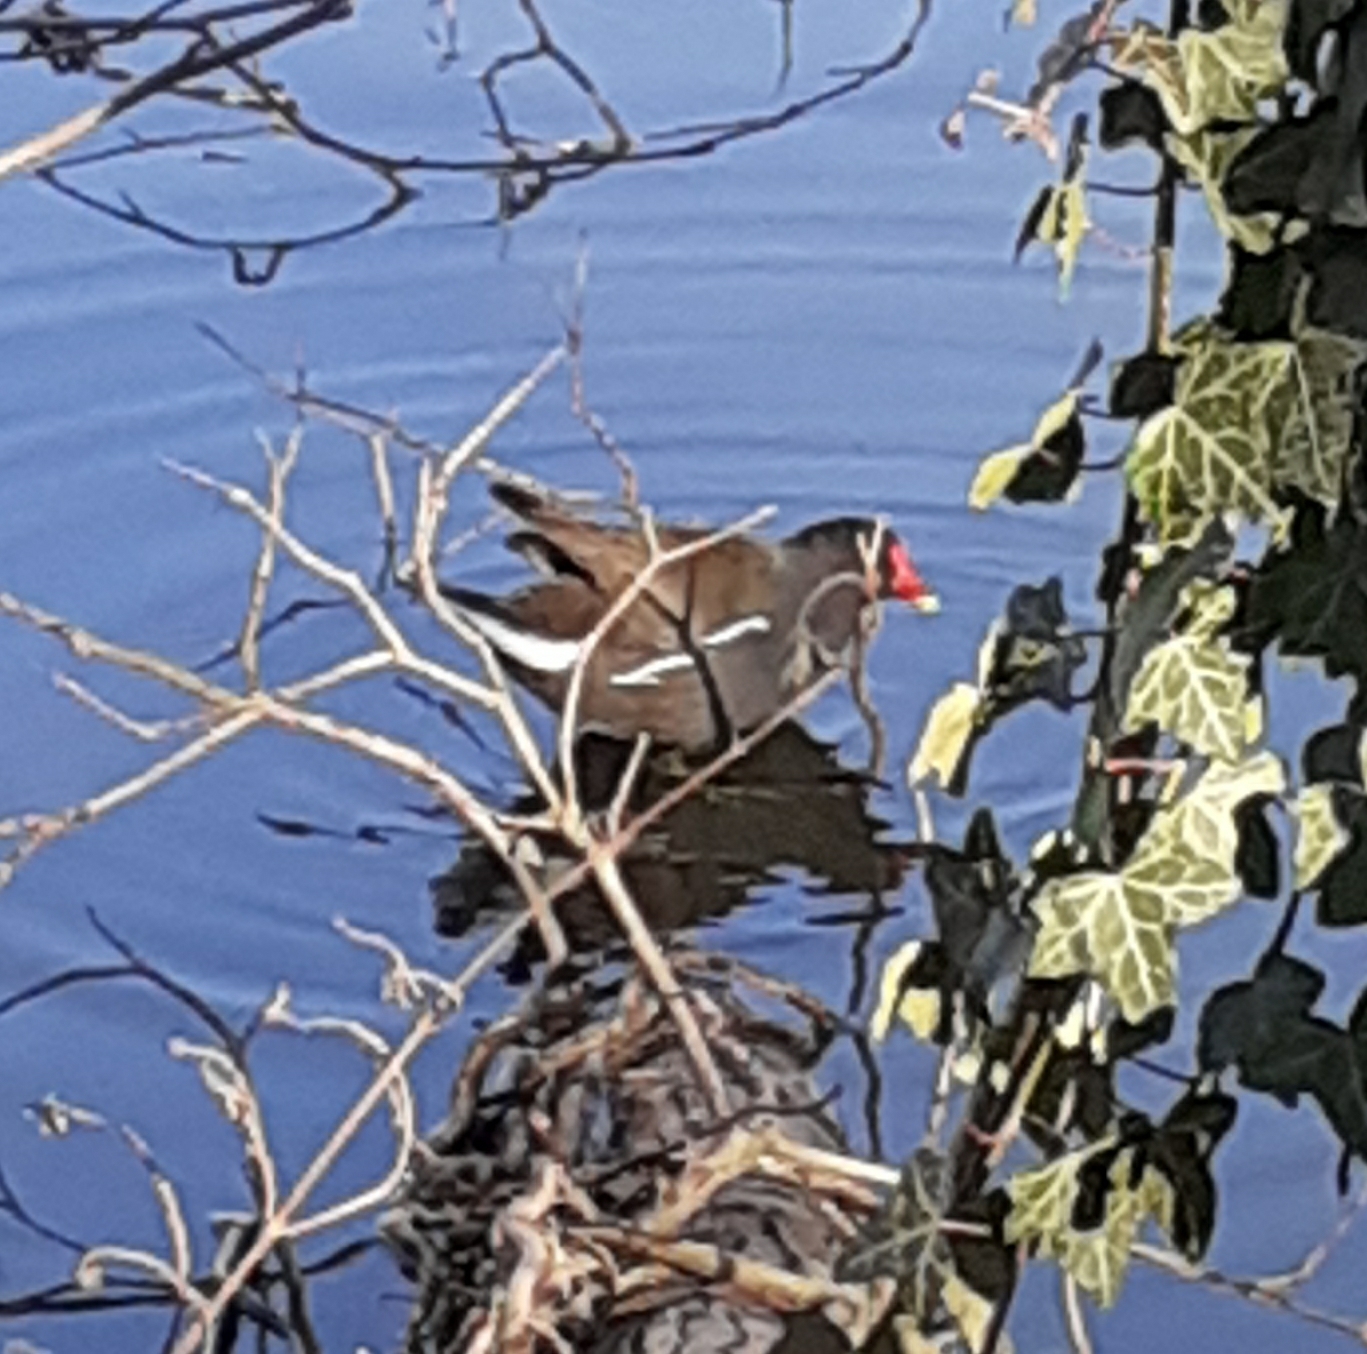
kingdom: Animalia
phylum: Chordata
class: Aves
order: Gruiformes
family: Rallidae
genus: Gallinula
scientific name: Gallinula chloropus
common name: Common moorhen
